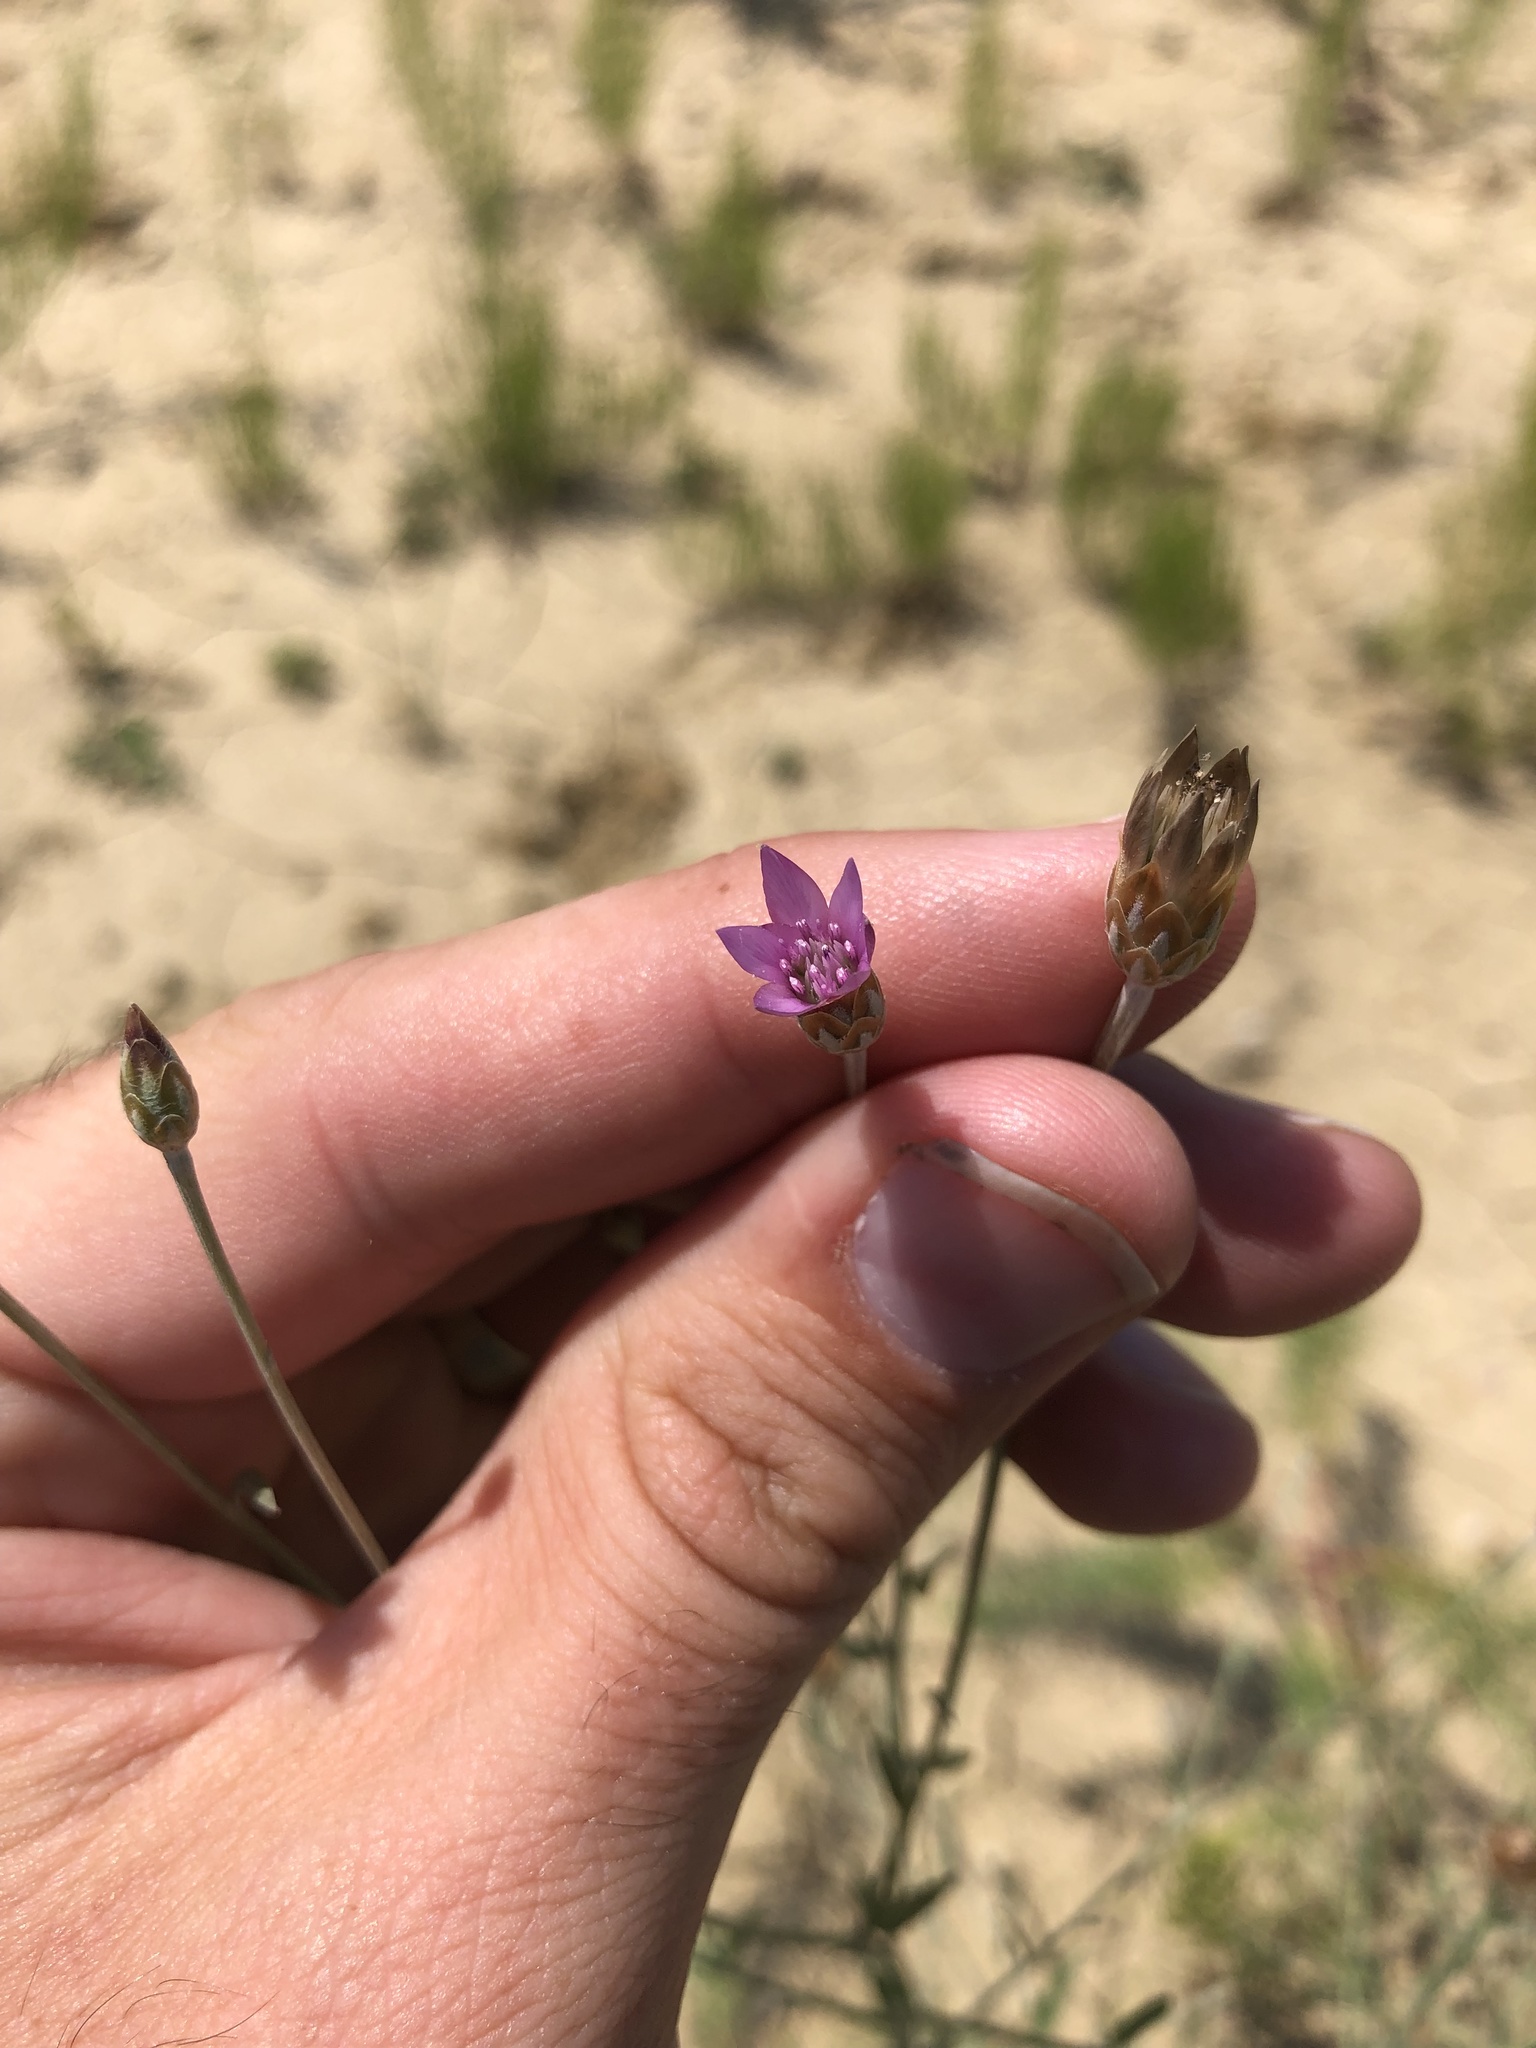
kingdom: Plantae
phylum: Tracheophyta
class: Magnoliopsida
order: Asterales
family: Asteraceae
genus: Xeranthemum
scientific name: Xeranthemum cylindraceum
